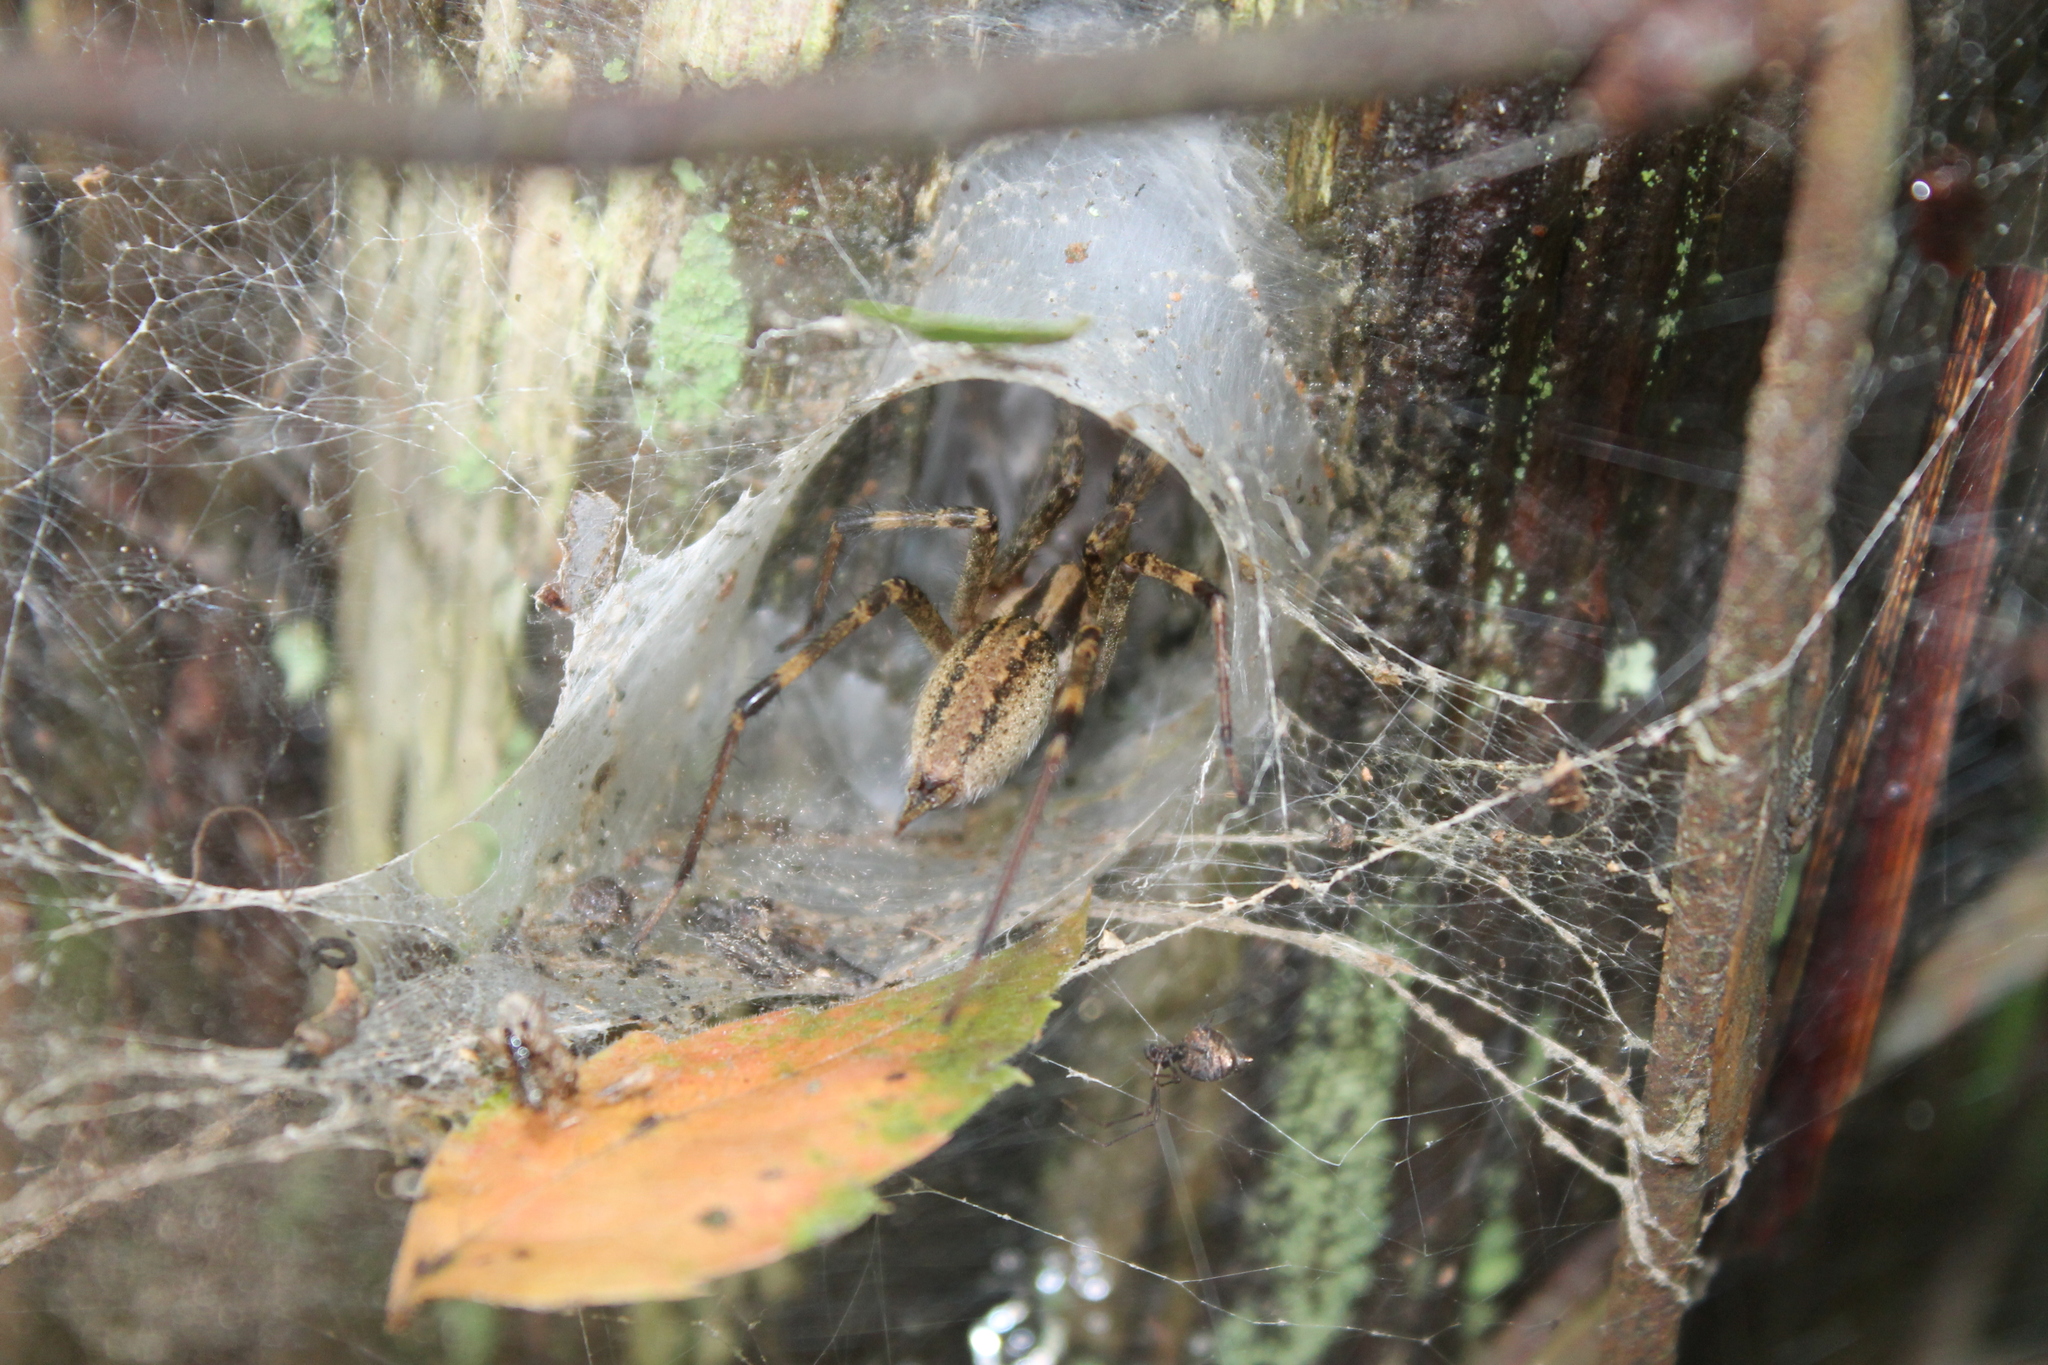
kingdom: Animalia
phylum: Arthropoda
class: Arachnida
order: Araneae
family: Agelenidae
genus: Agelenopsis
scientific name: Agelenopsis
